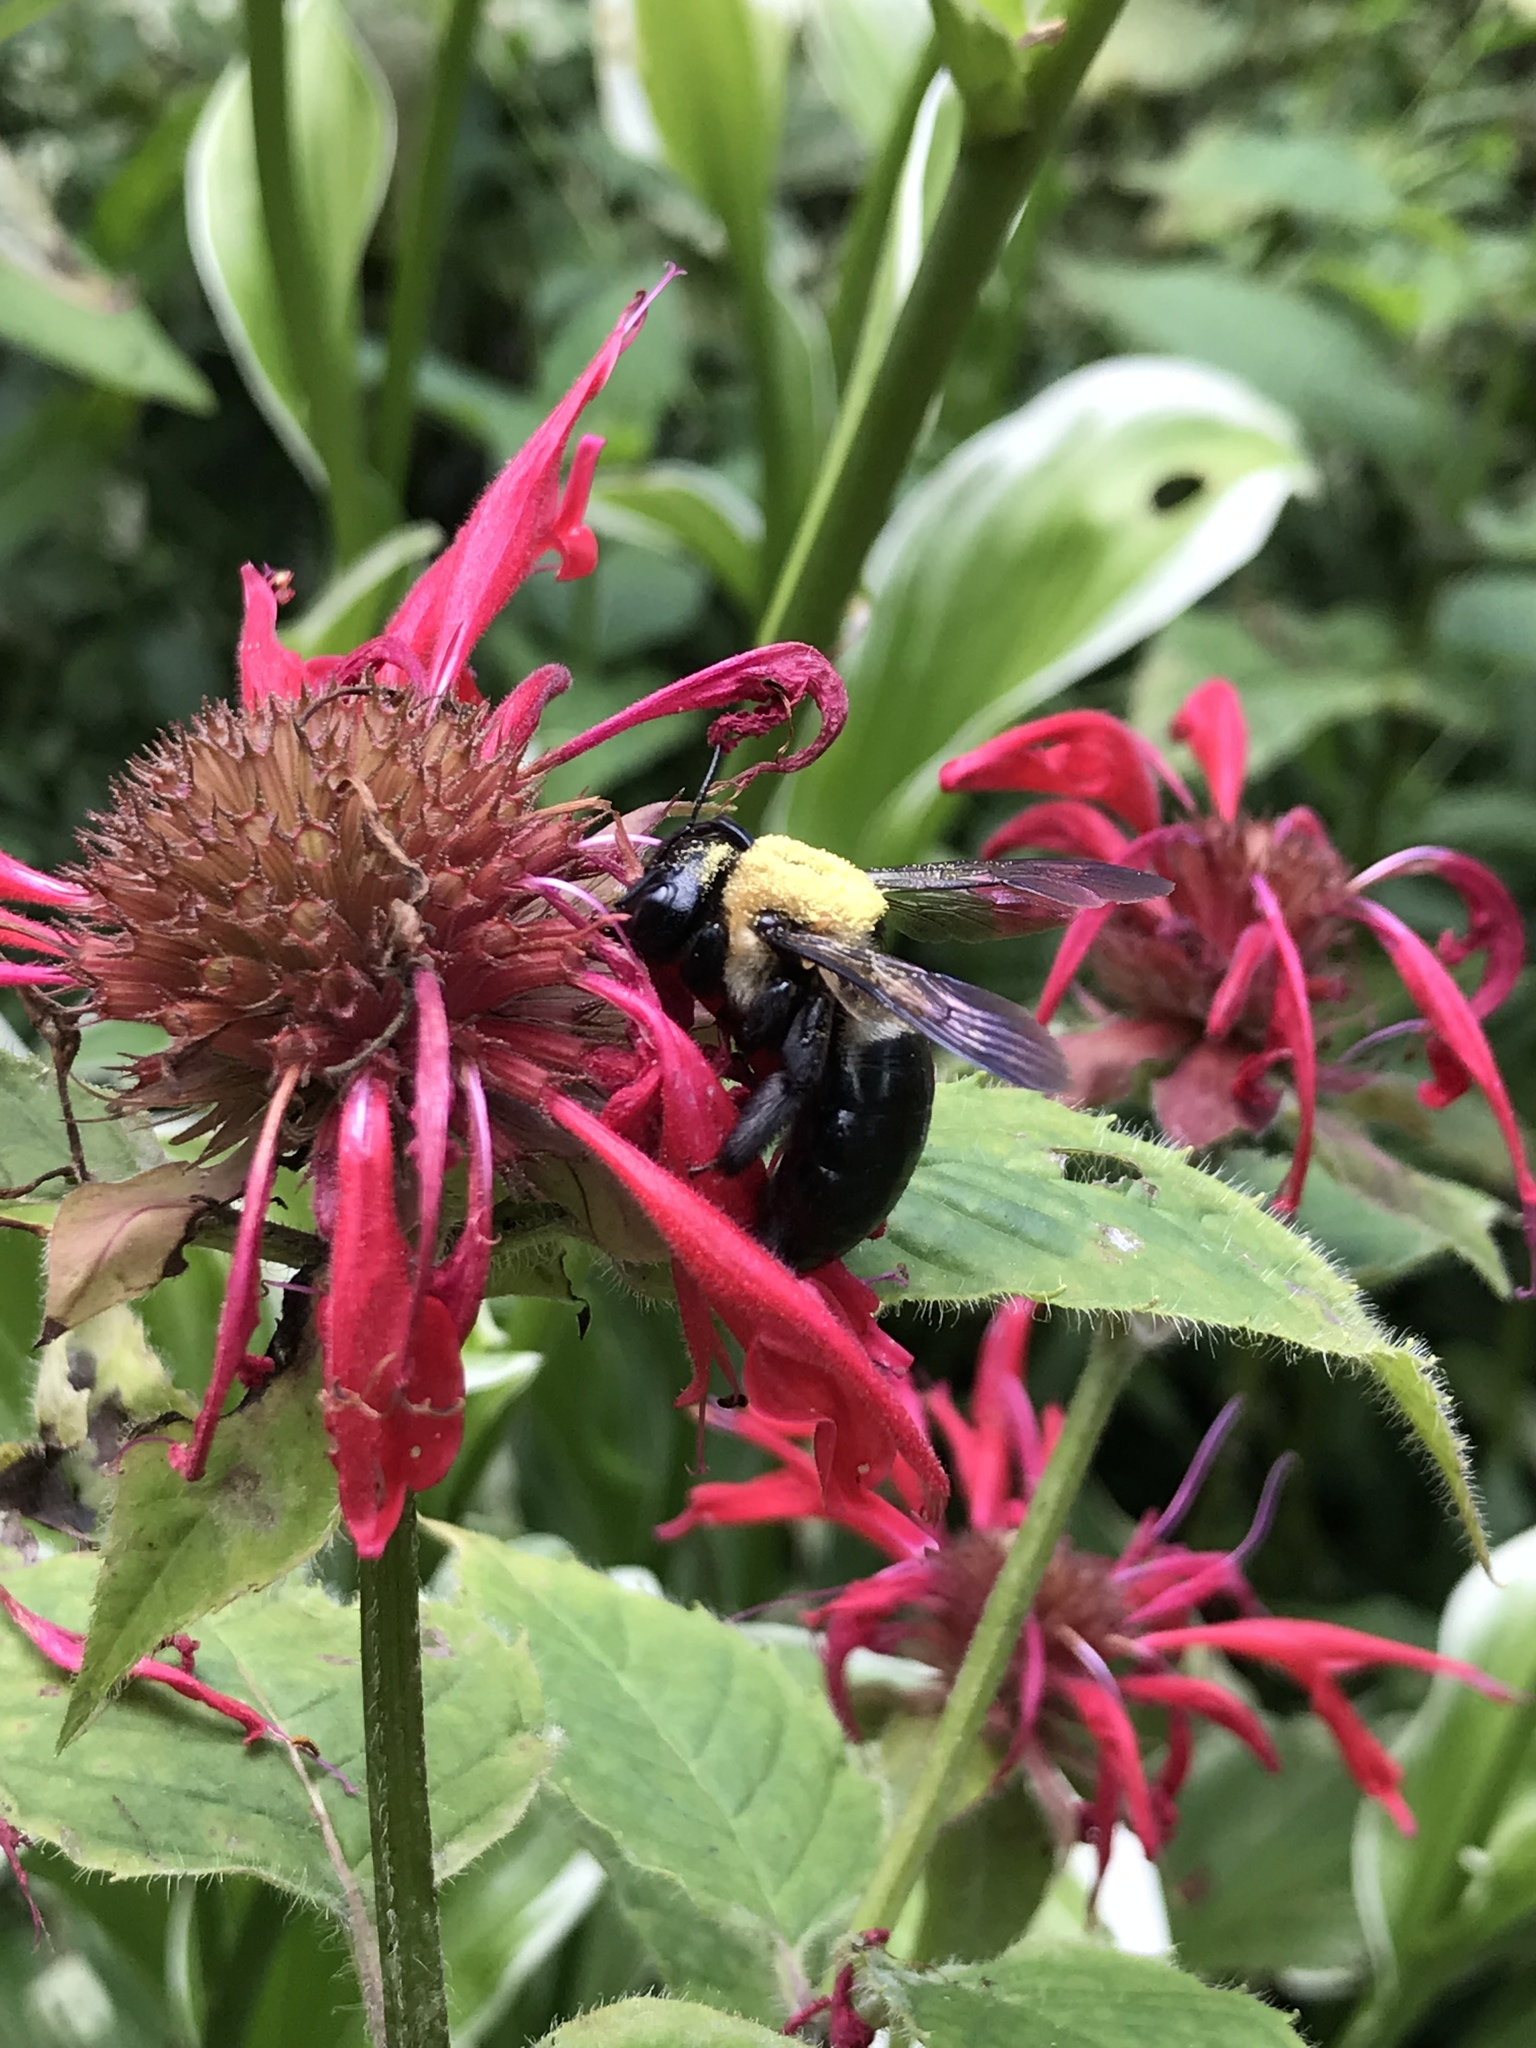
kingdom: Animalia
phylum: Arthropoda
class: Insecta
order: Hymenoptera
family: Apidae
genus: Xylocopa
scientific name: Xylocopa virginica
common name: Carpenter bee
